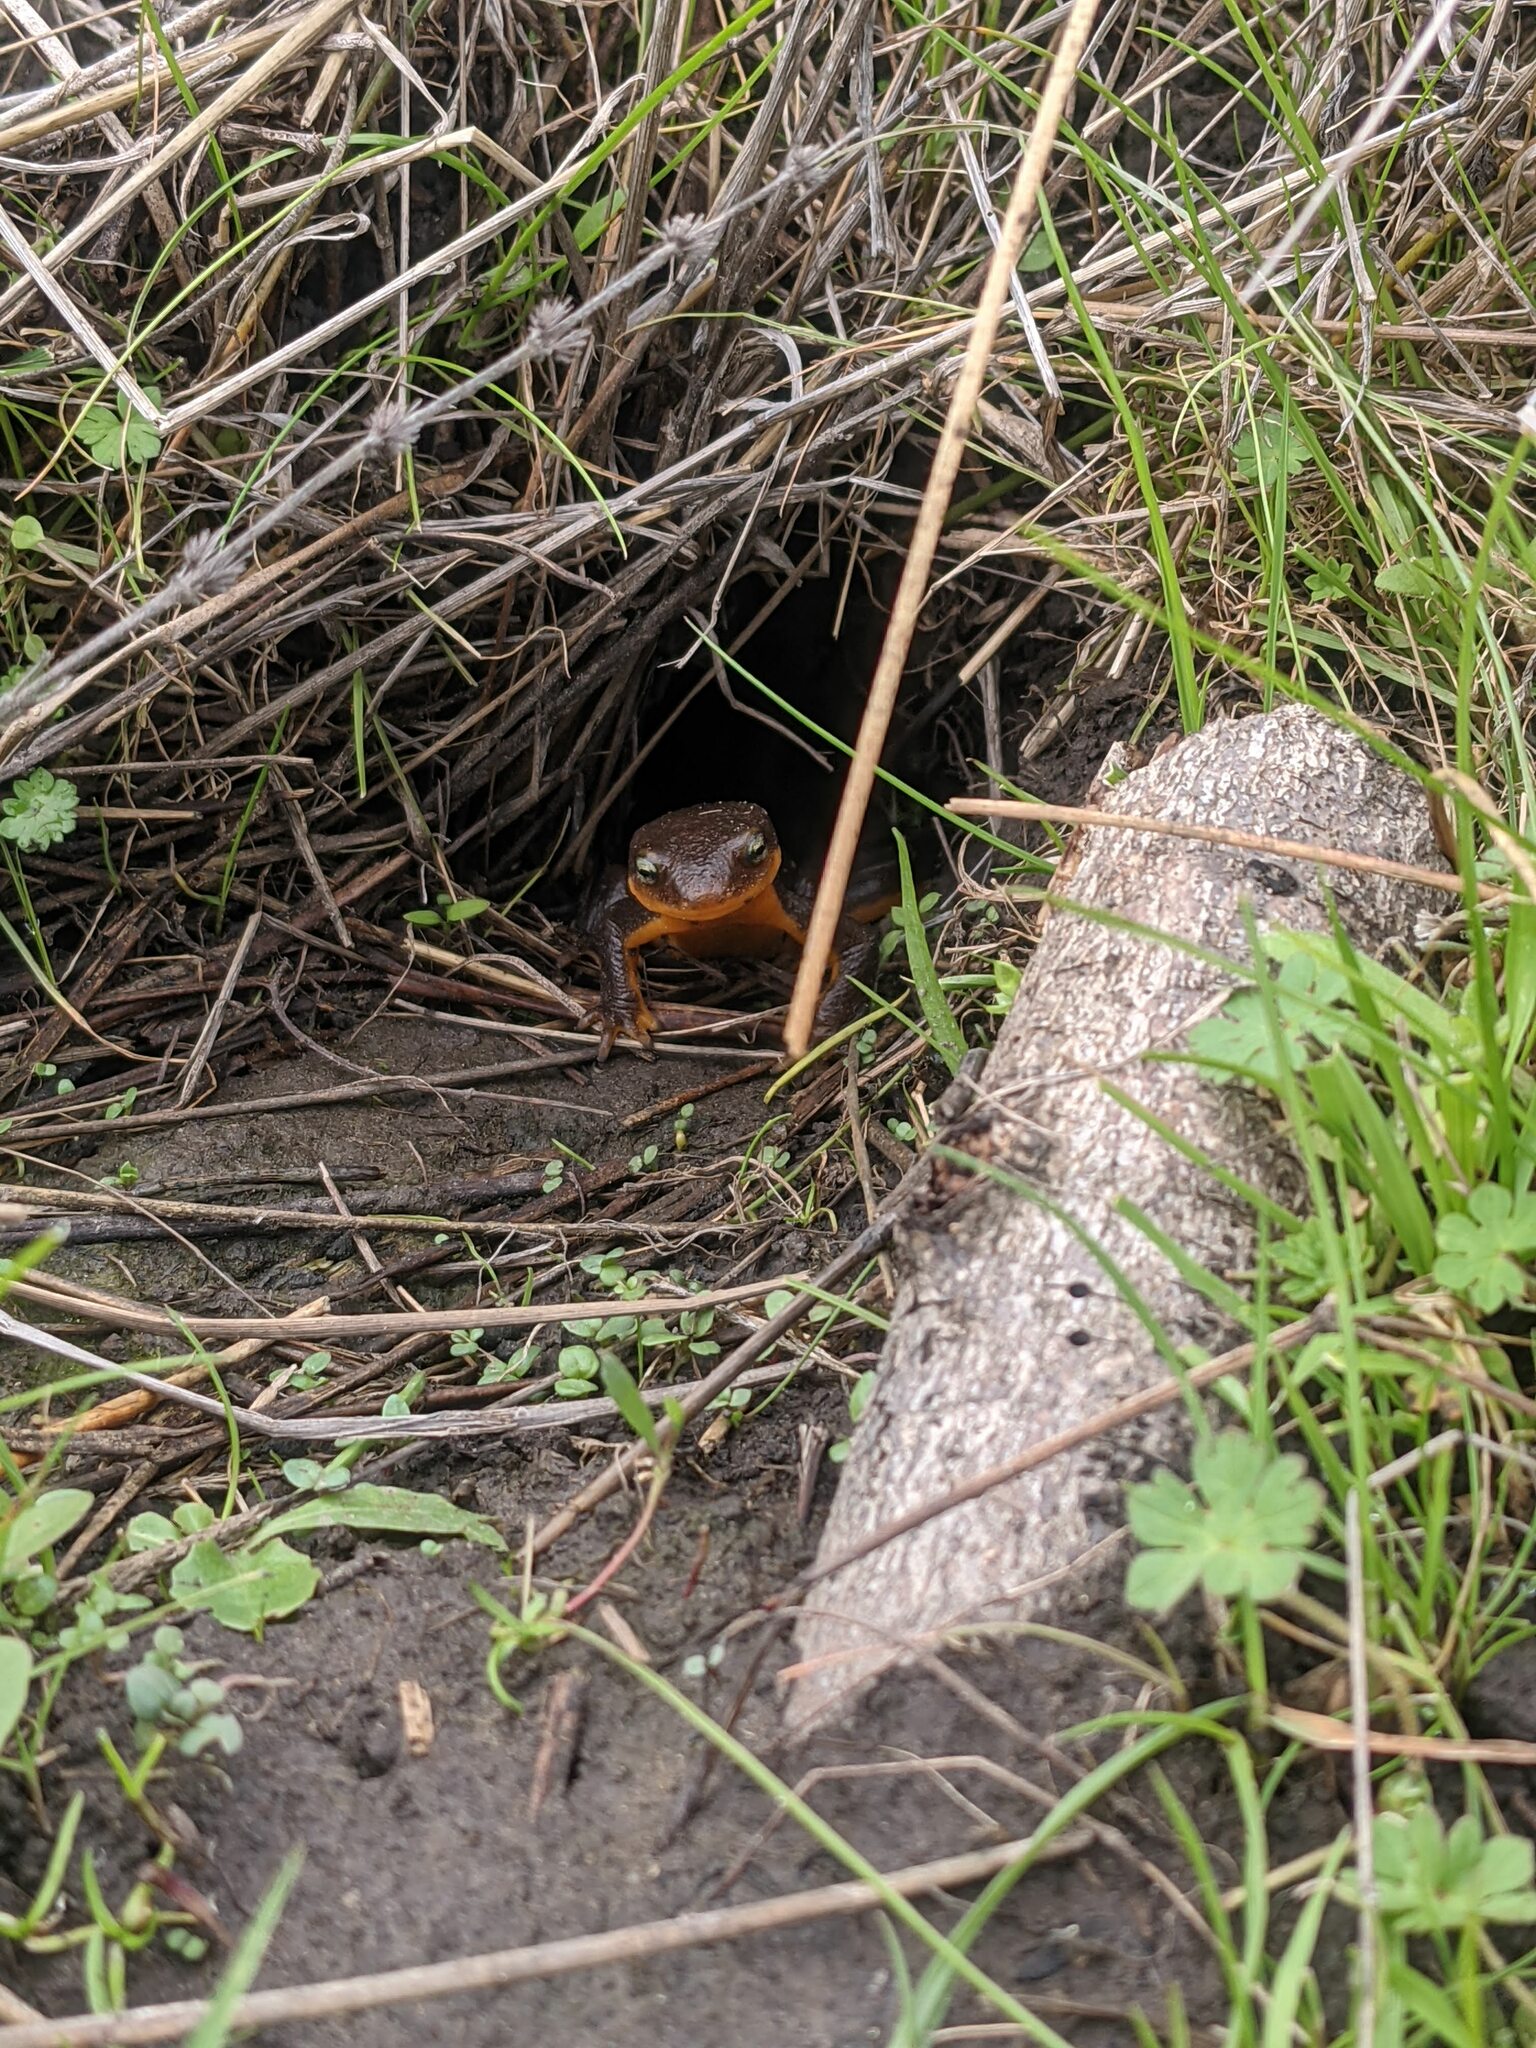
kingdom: Animalia
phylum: Chordata
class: Amphibia
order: Caudata
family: Salamandridae
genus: Taricha
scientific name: Taricha granulosa
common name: Roughskin newt
